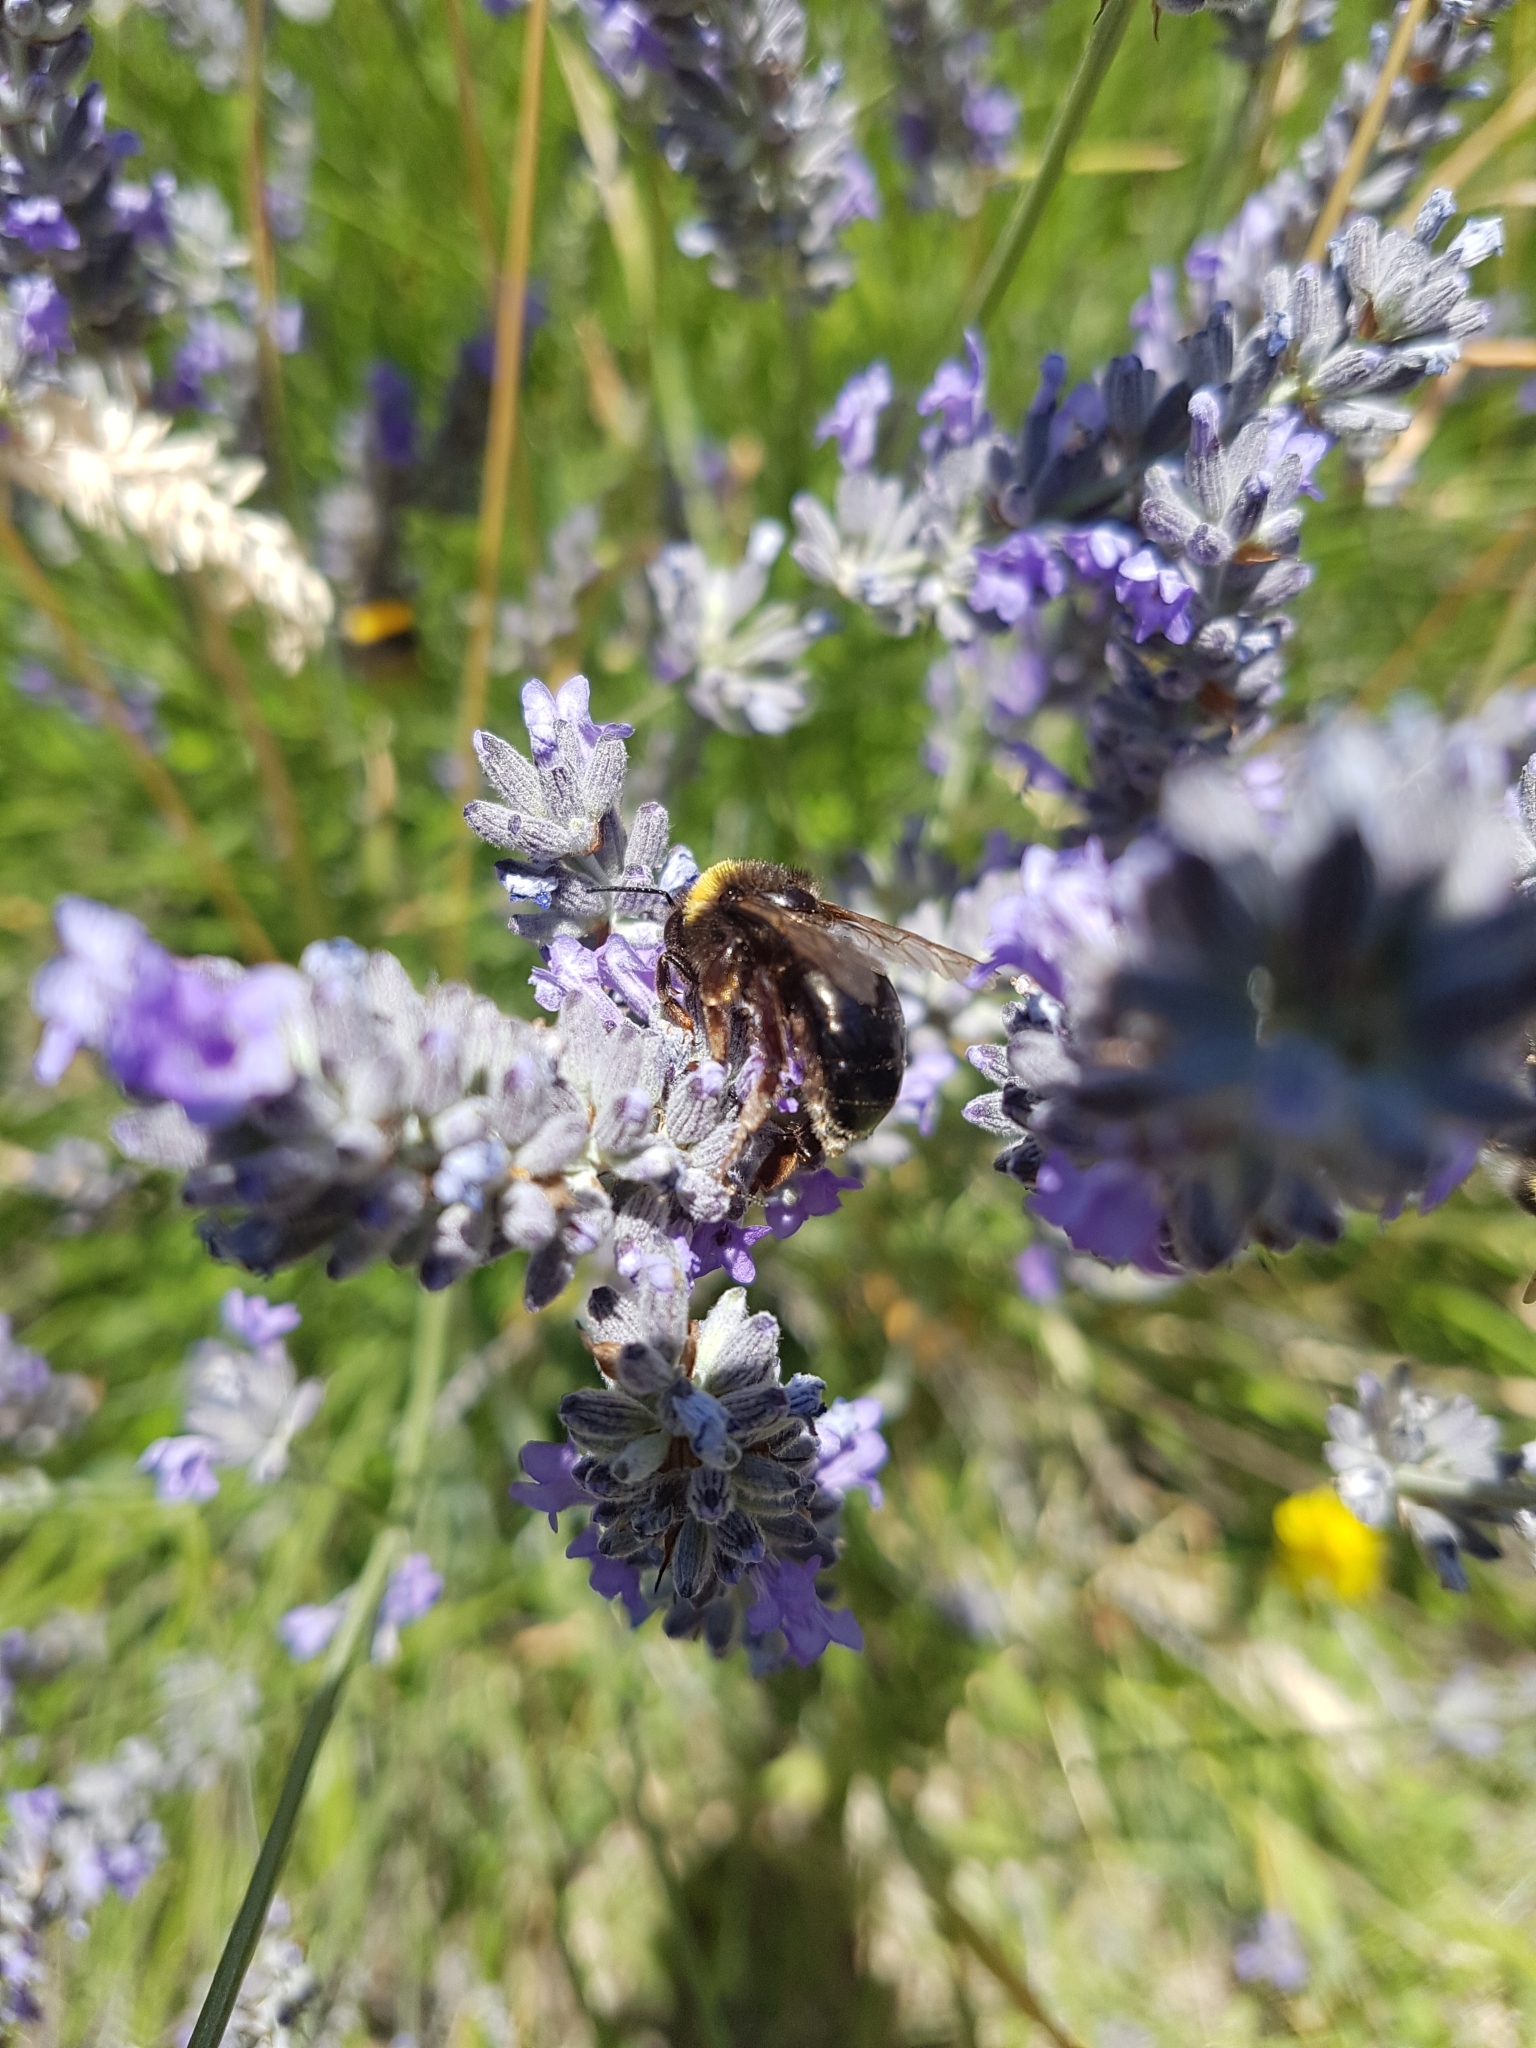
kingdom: Animalia
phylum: Arthropoda
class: Insecta
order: Hymenoptera
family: Apidae
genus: Bombus
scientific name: Bombus terrestris
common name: Buff-tailed bumblebee
